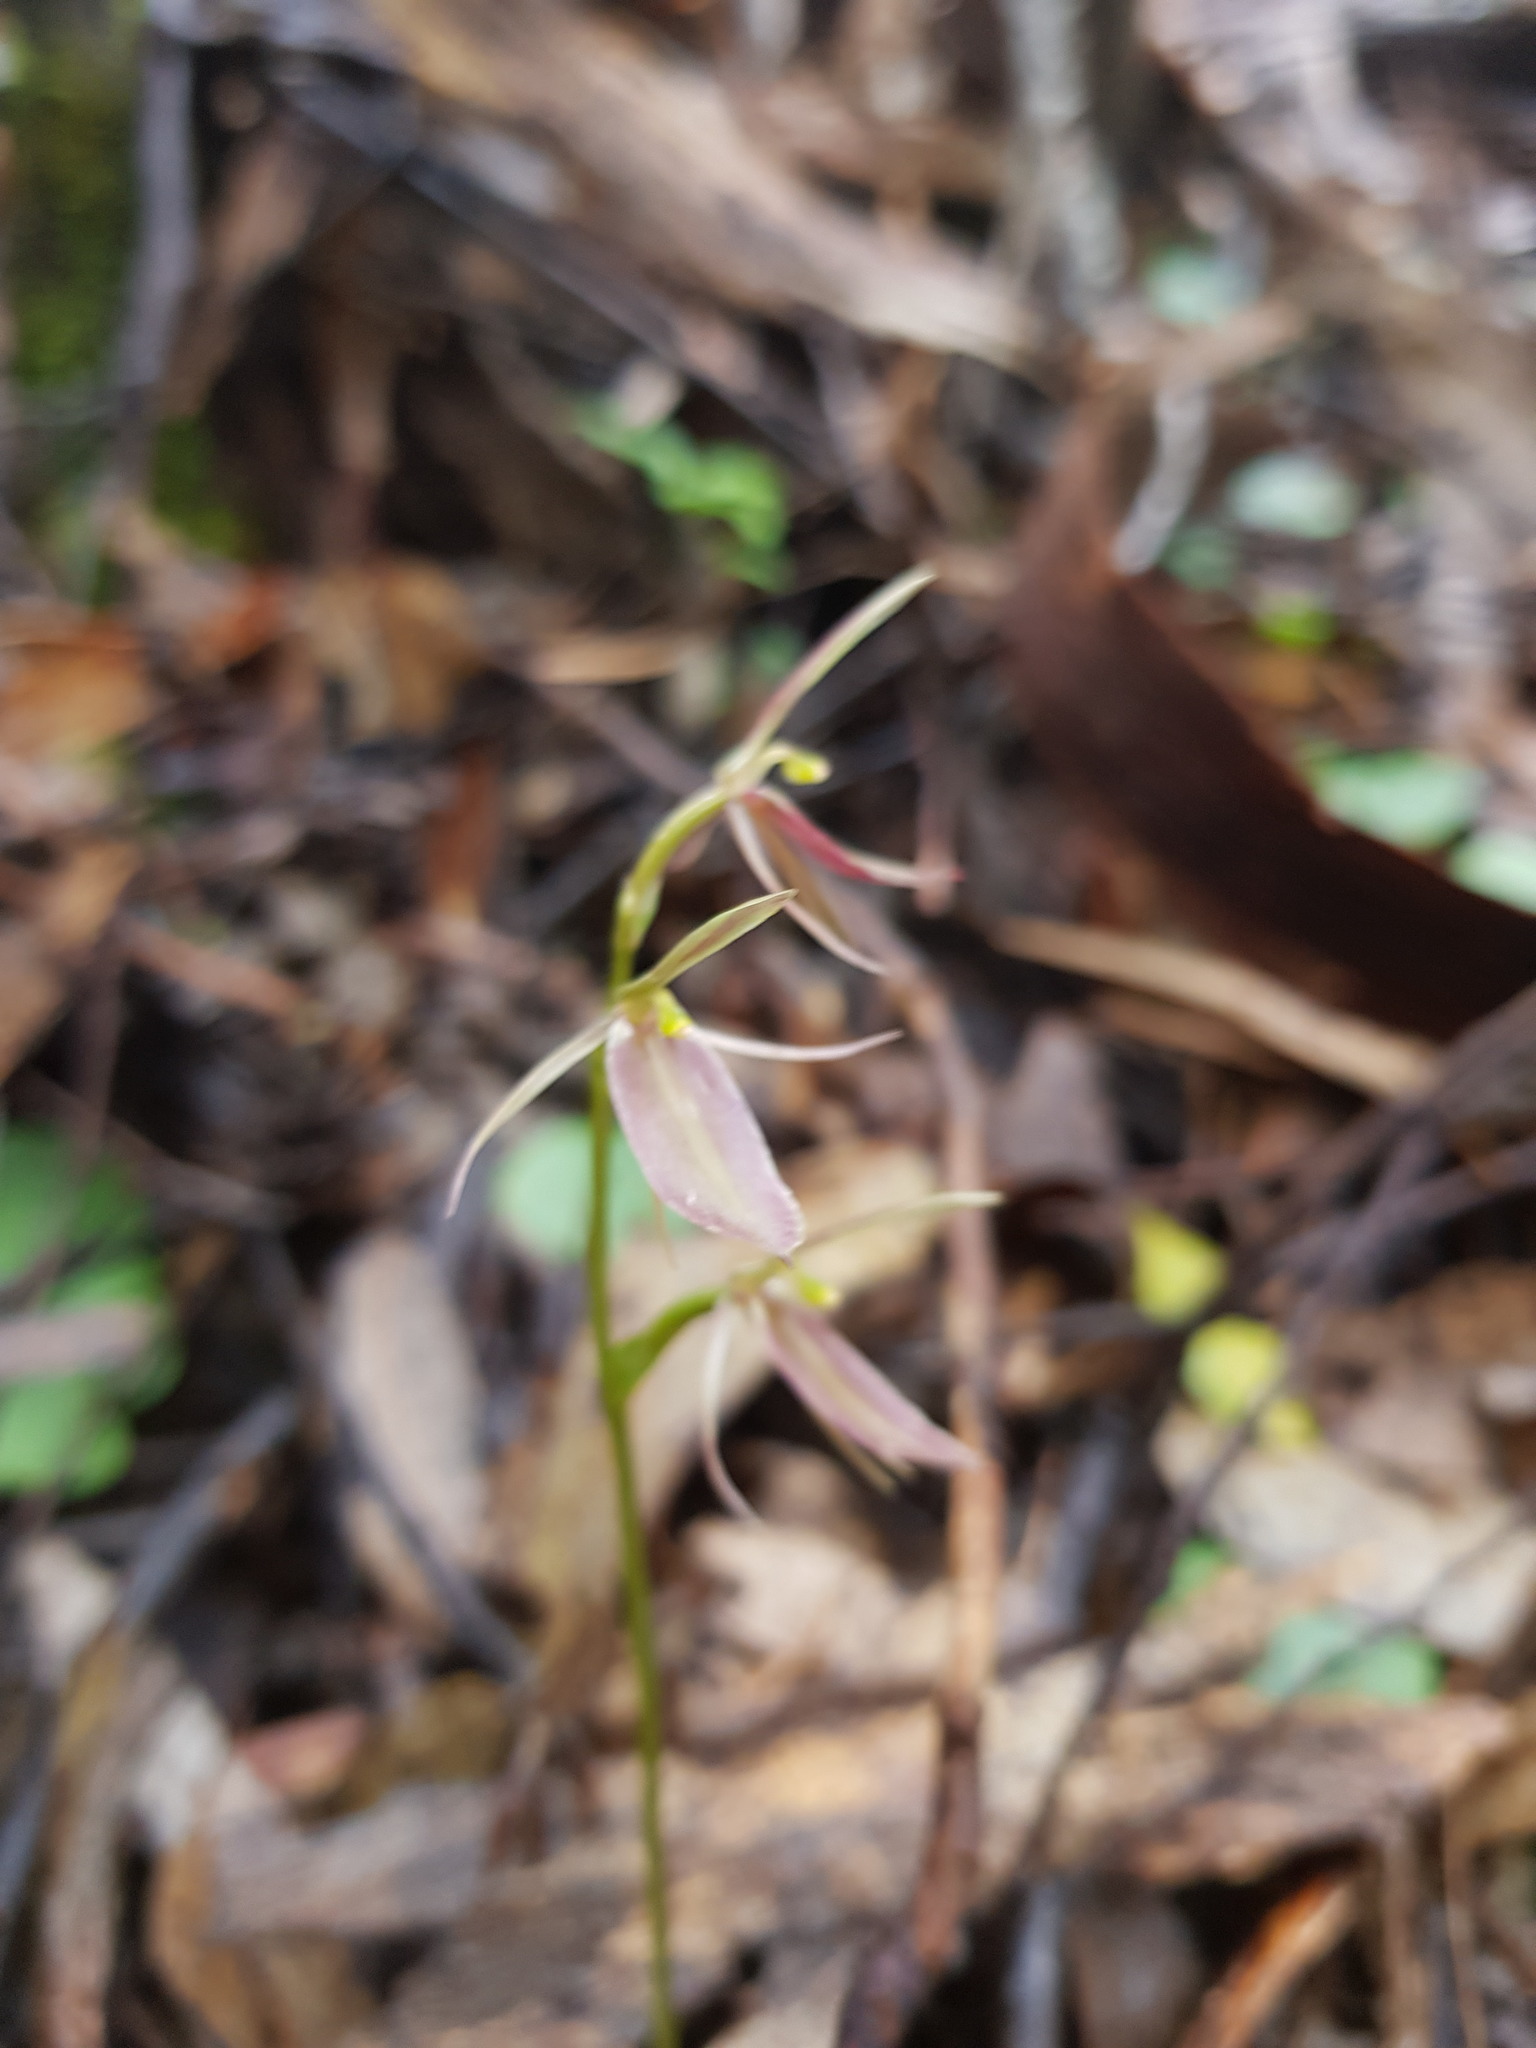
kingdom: Plantae
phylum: Tracheophyta
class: Liliopsida
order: Asparagales
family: Orchidaceae
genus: Cyrtostylis
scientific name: Cyrtostylis robusta
